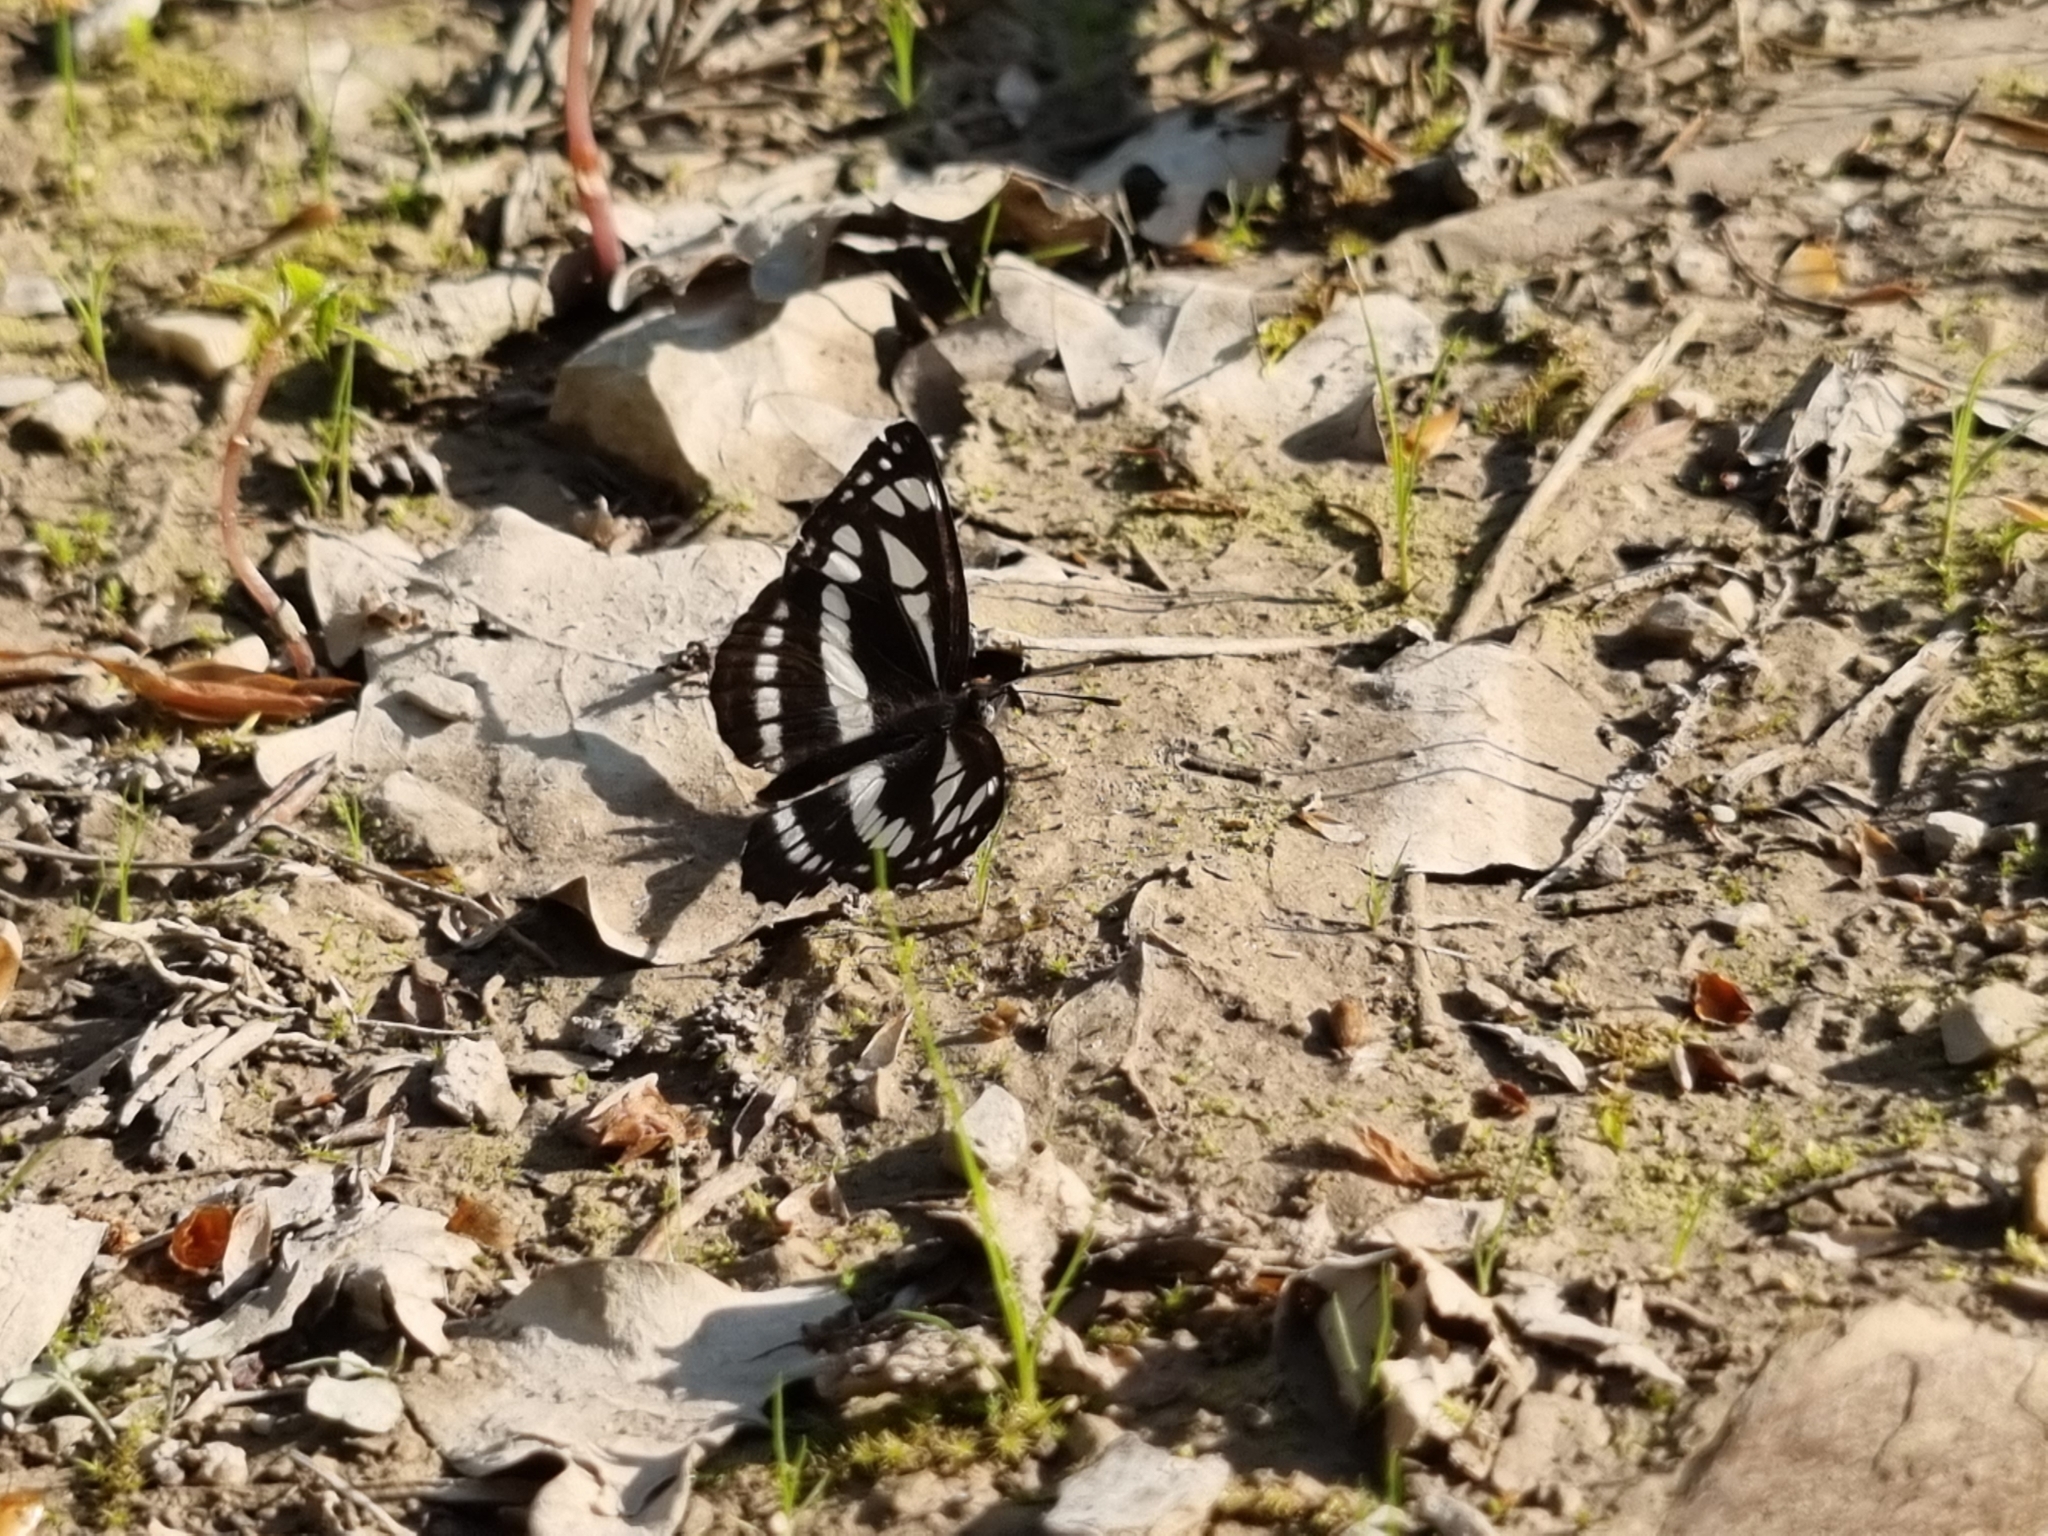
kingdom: Animalia
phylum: Arthropoda
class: Insecta
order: Lepidoptera
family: Nymphalidae
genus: Neptis
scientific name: Neptis sappho
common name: Common glider
